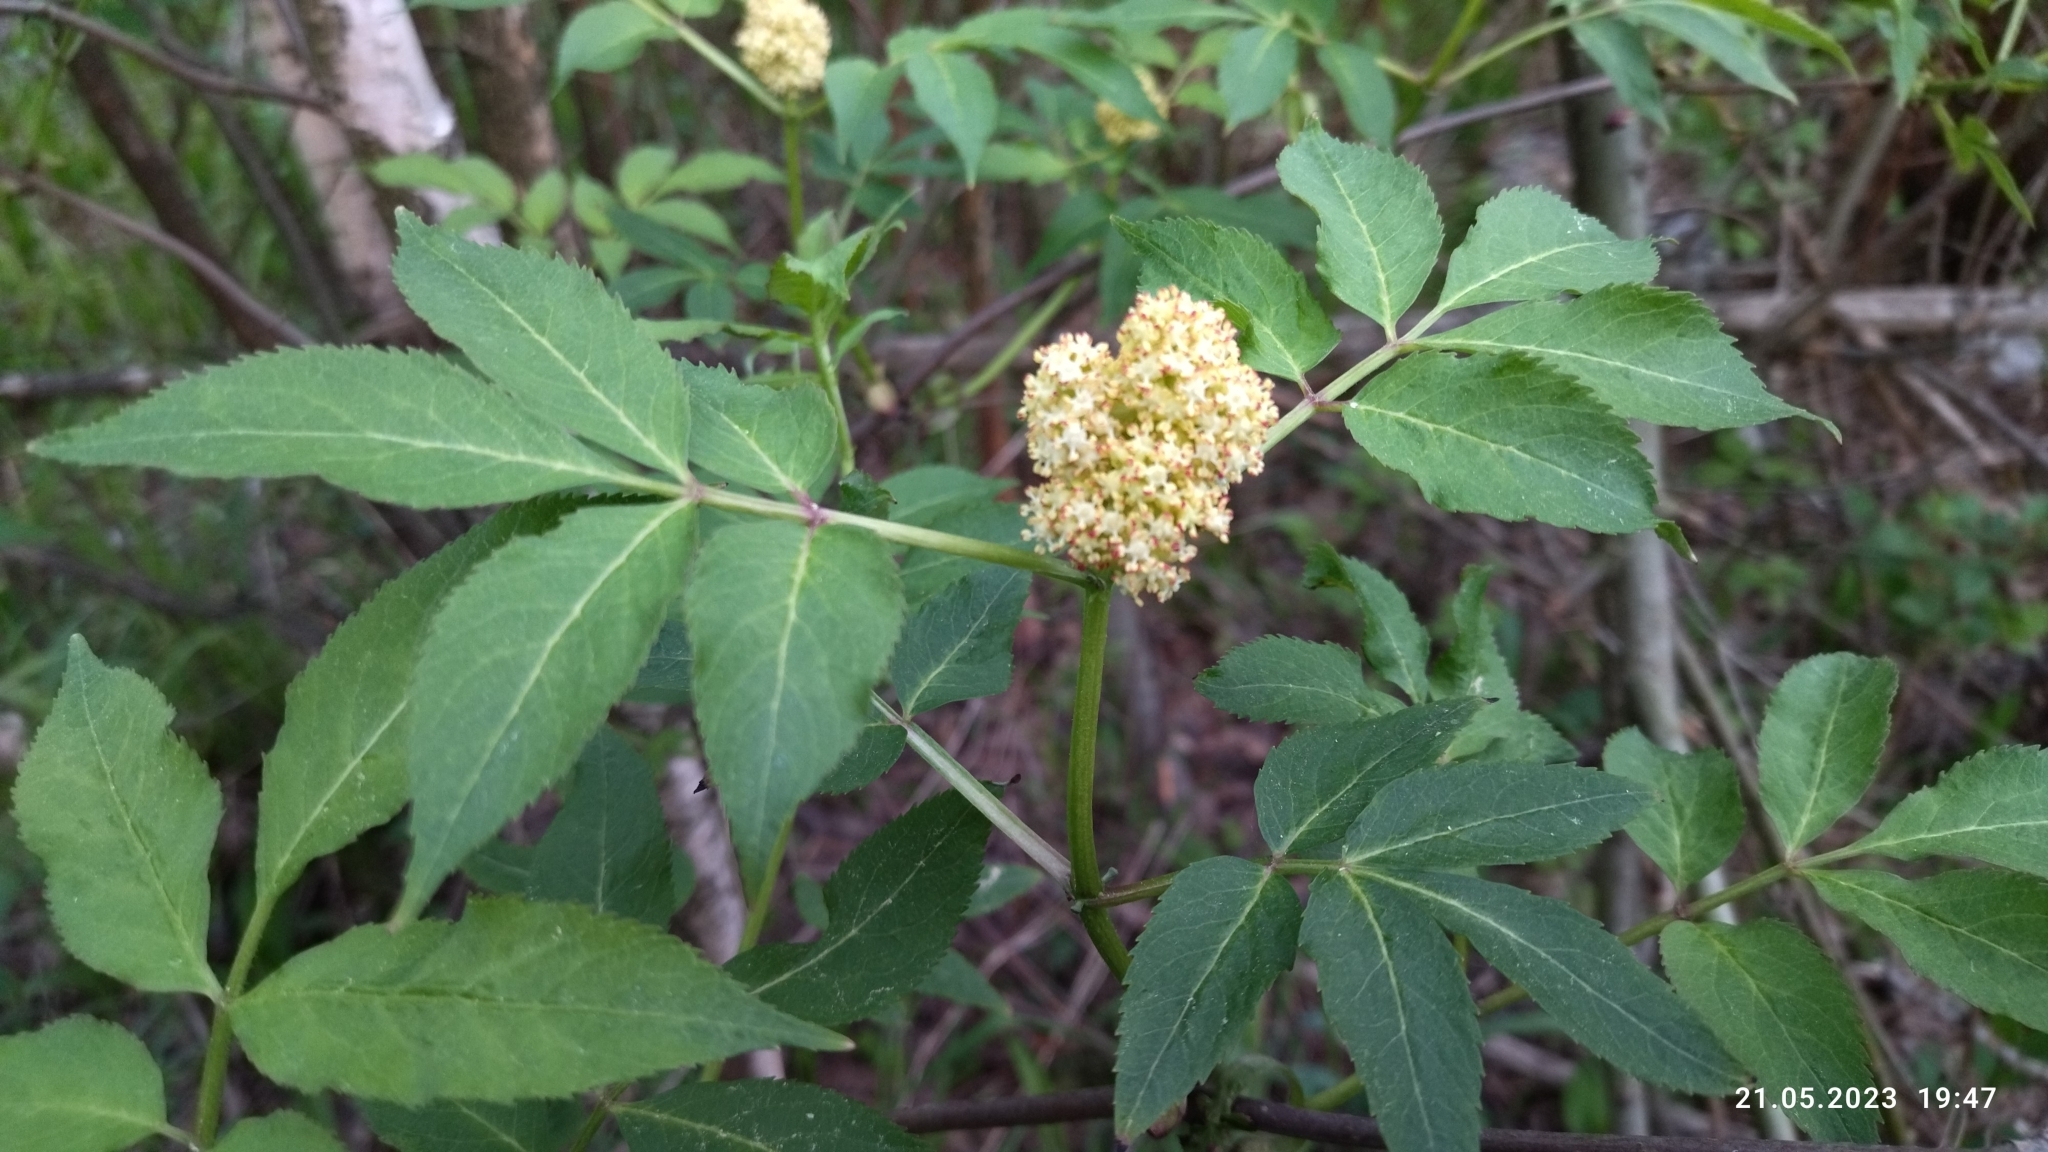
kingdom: Plantae
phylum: Tracheophyta
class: Magnoliopsida
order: Dipsacales
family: Viburnaceae
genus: Sambucus
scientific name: Sambucus racemosa
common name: Red-berried elder
